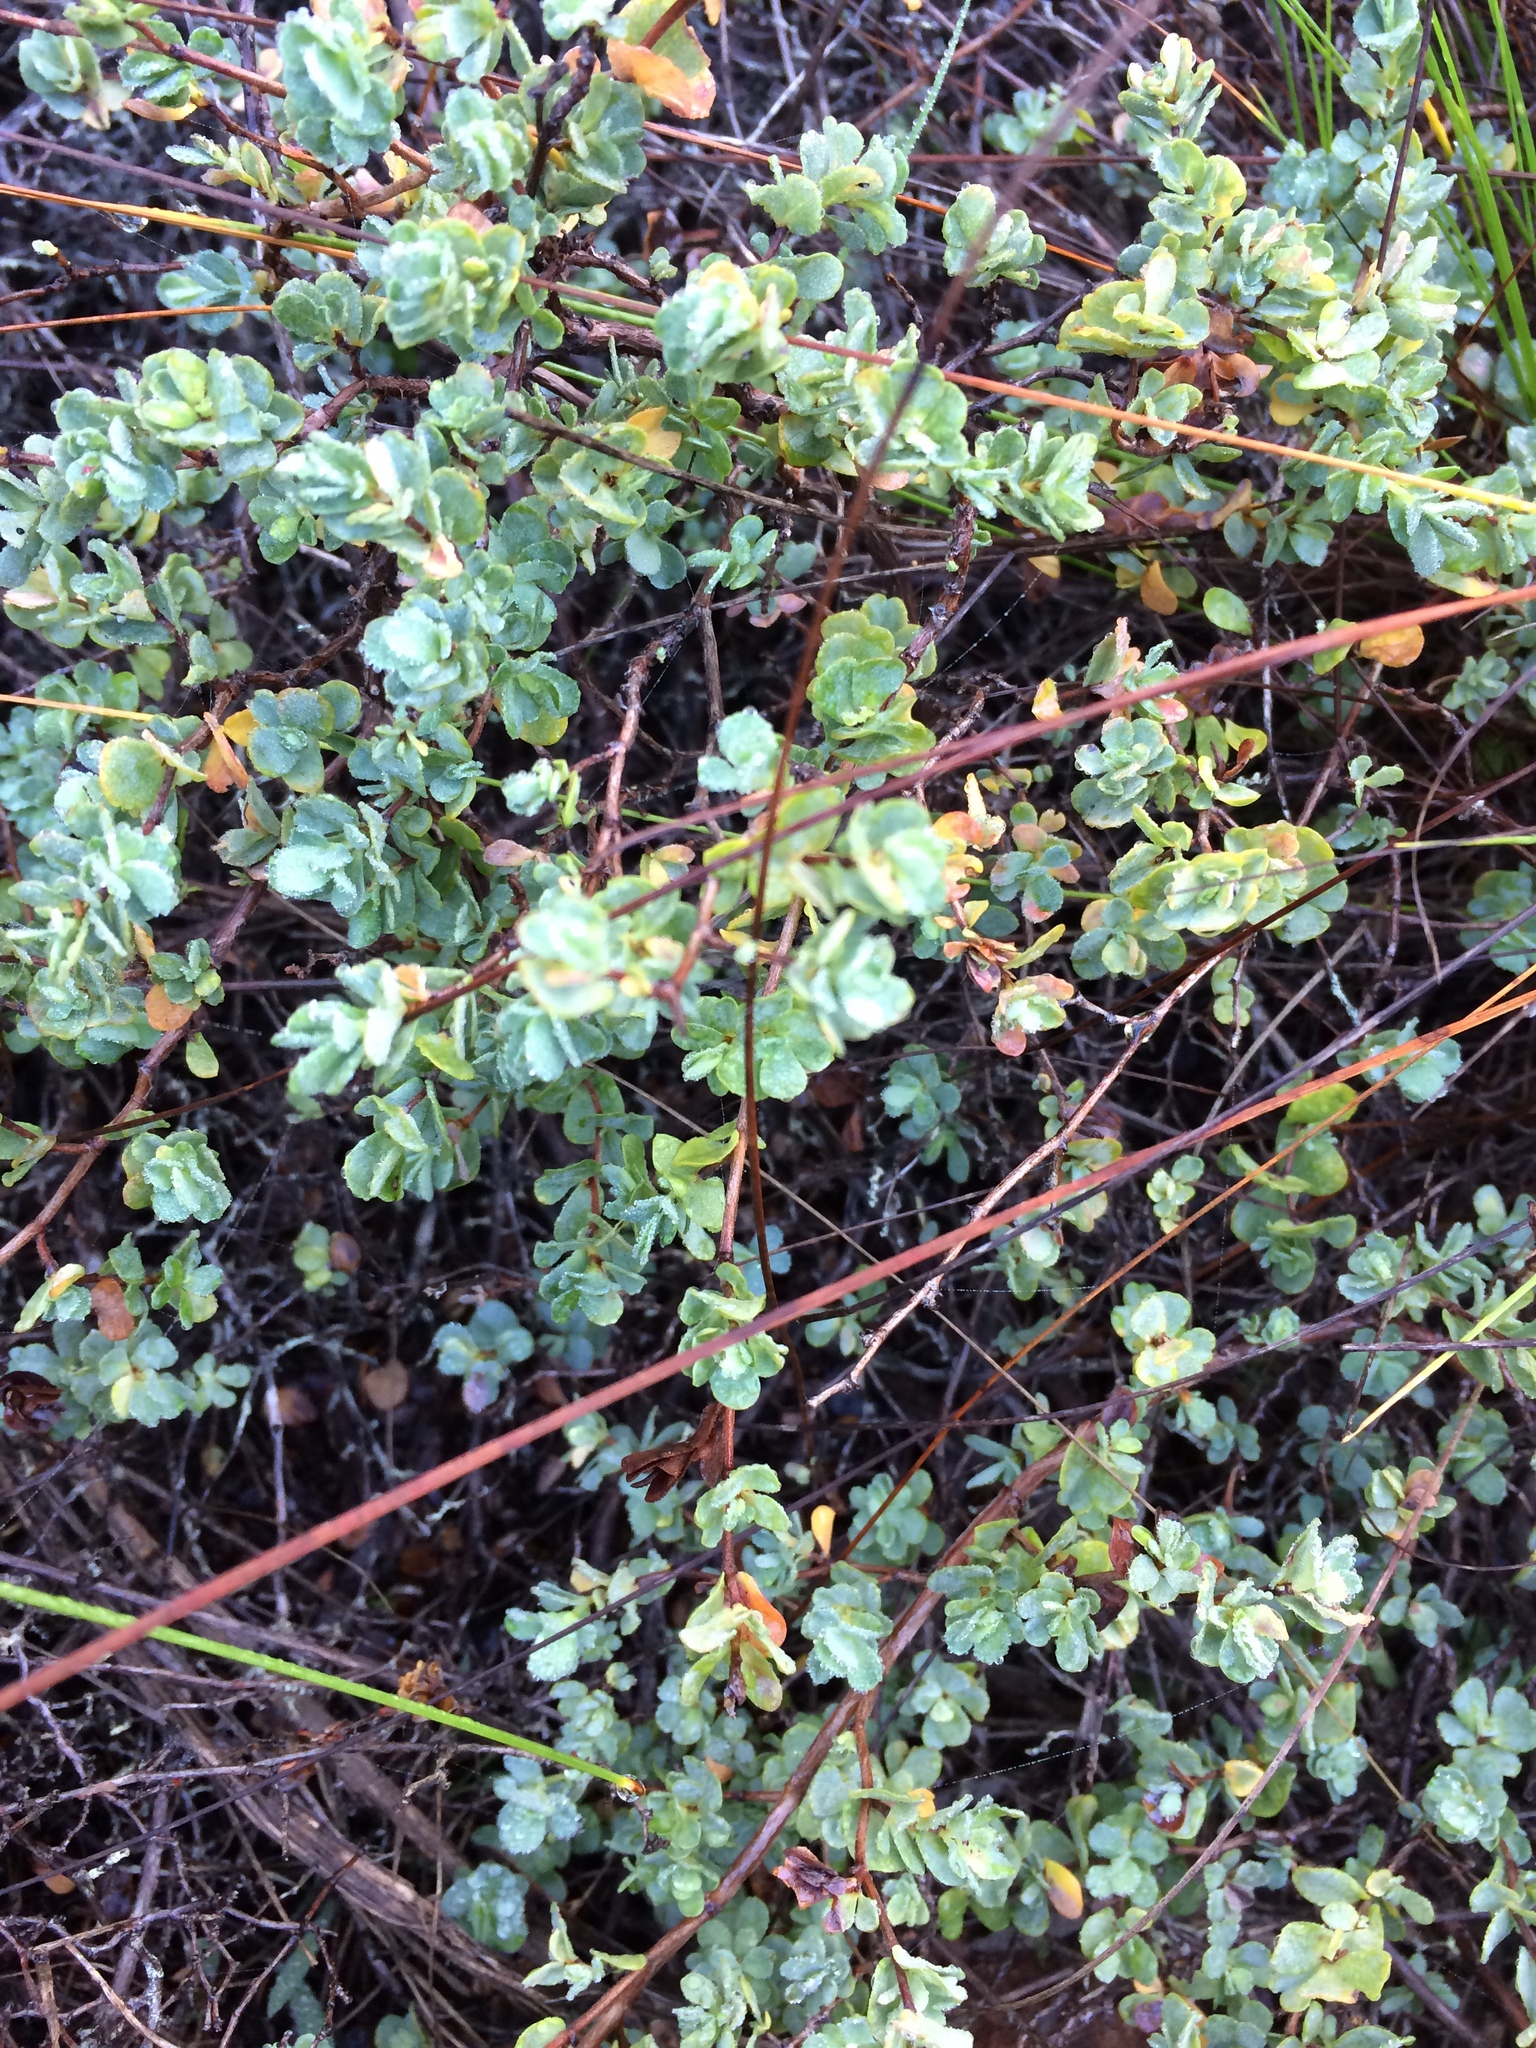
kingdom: Plantae
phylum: Tracheophyta
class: Magnoliopsida
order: Rosales
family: Rosaceae
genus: Cliffortia
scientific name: Cliffortia obcordata
